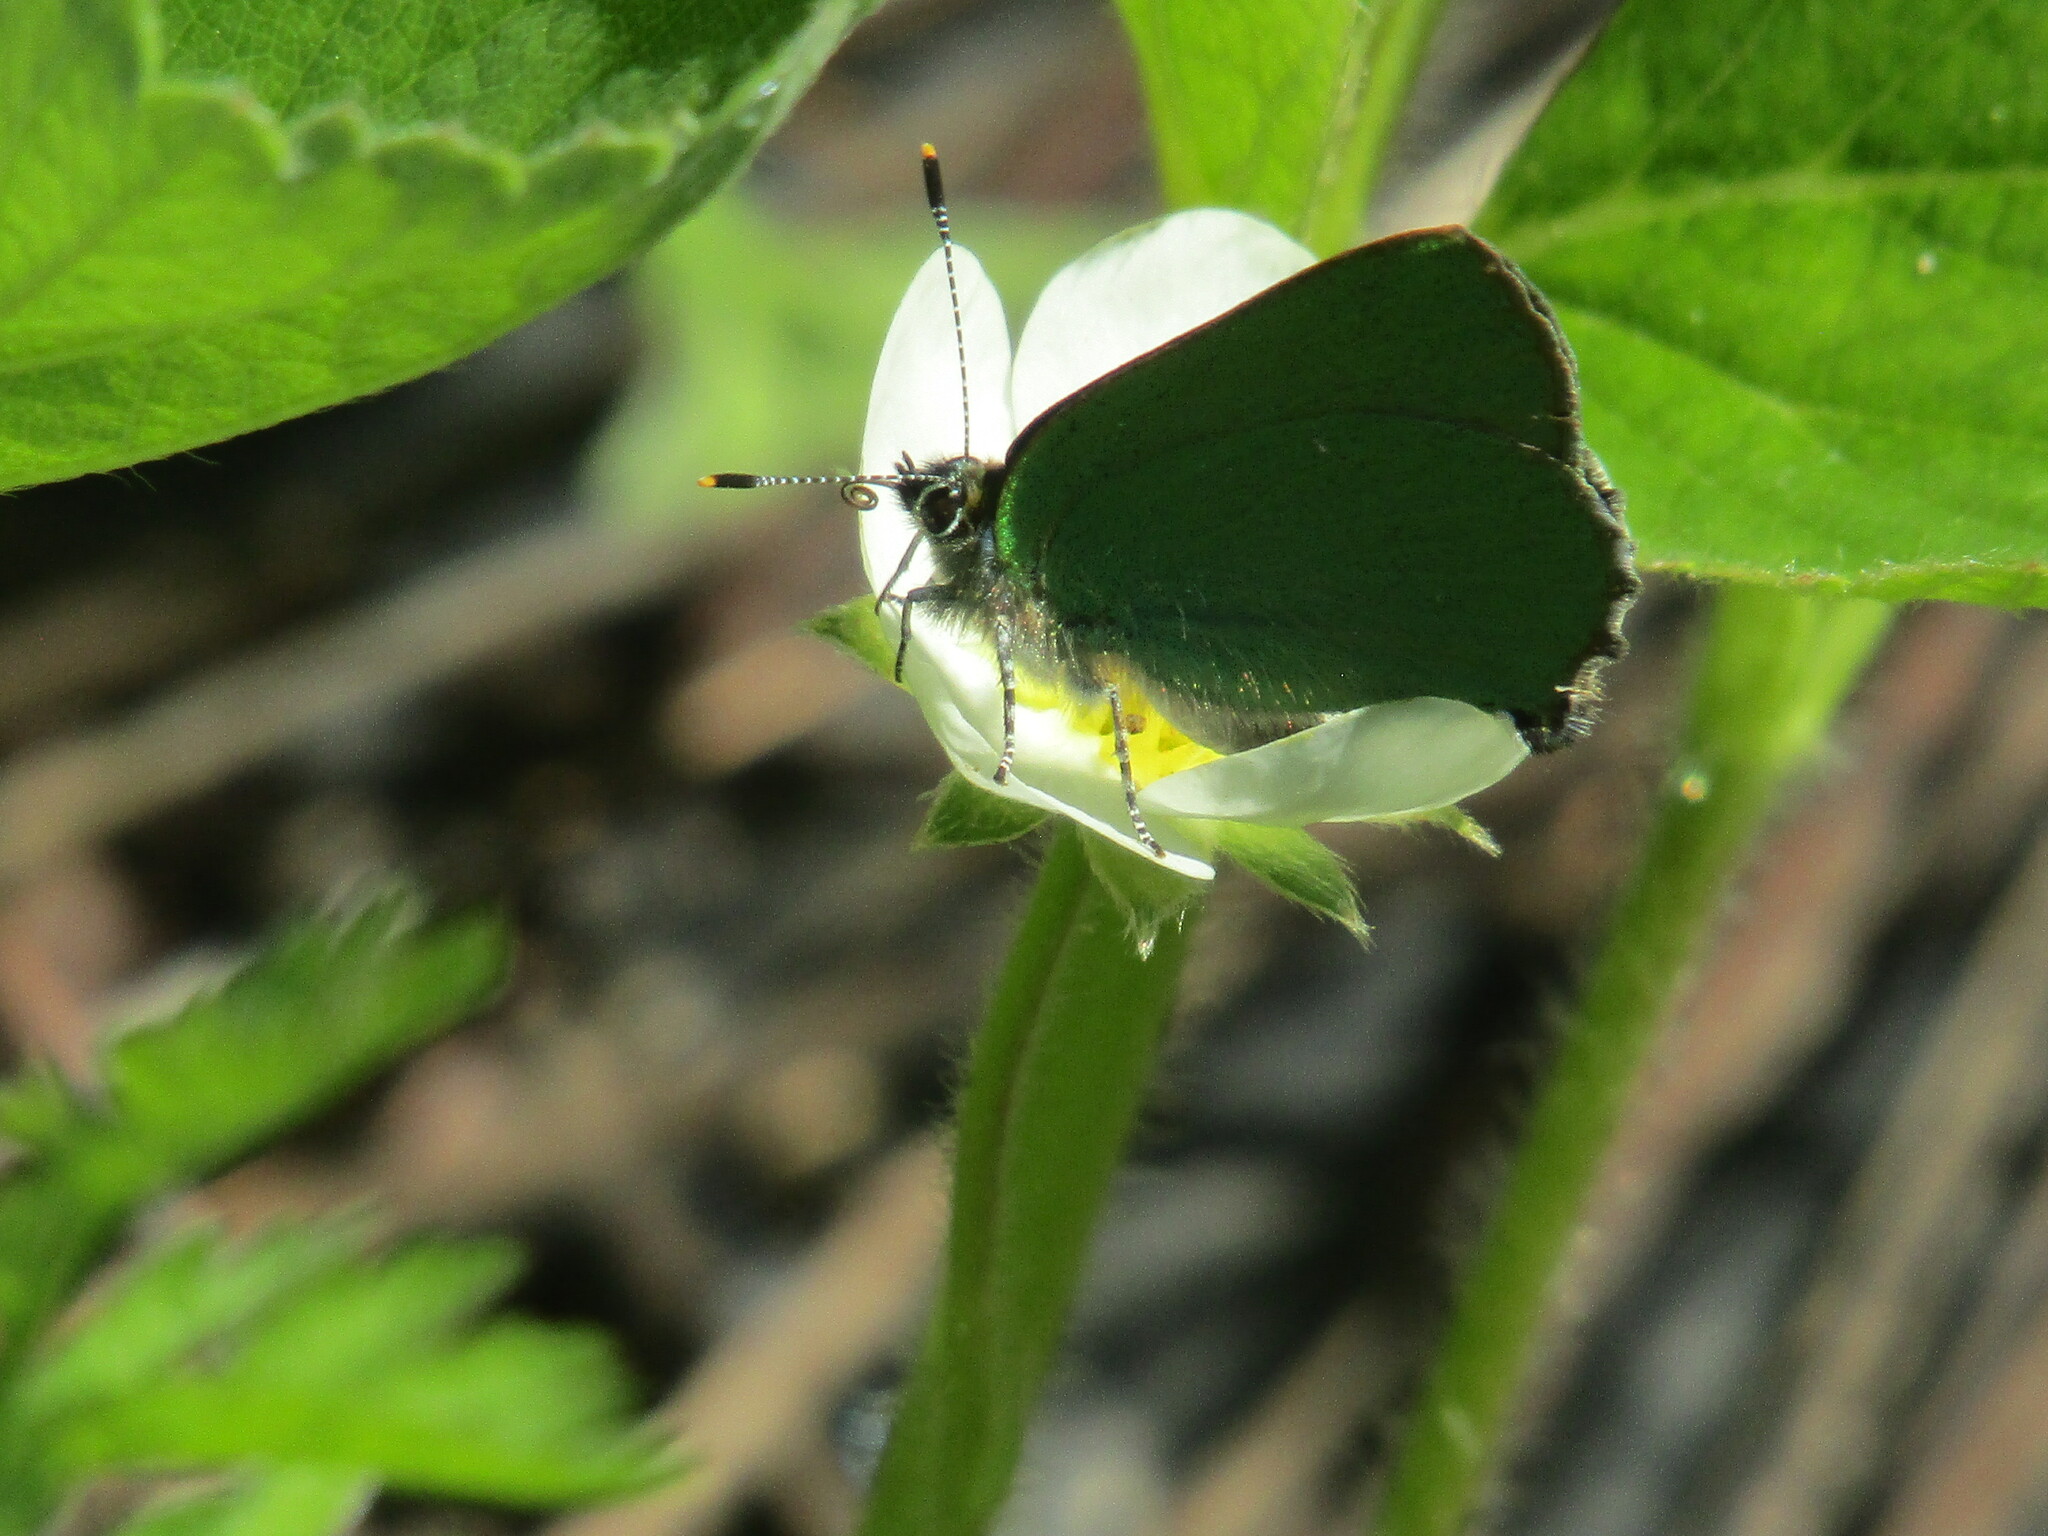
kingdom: Animalia
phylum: Arthropoda
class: Insecta
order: Lepidoptera
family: Lycaenidae
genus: Callophrys
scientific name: Callophrys rubi
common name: Green hairstreak
